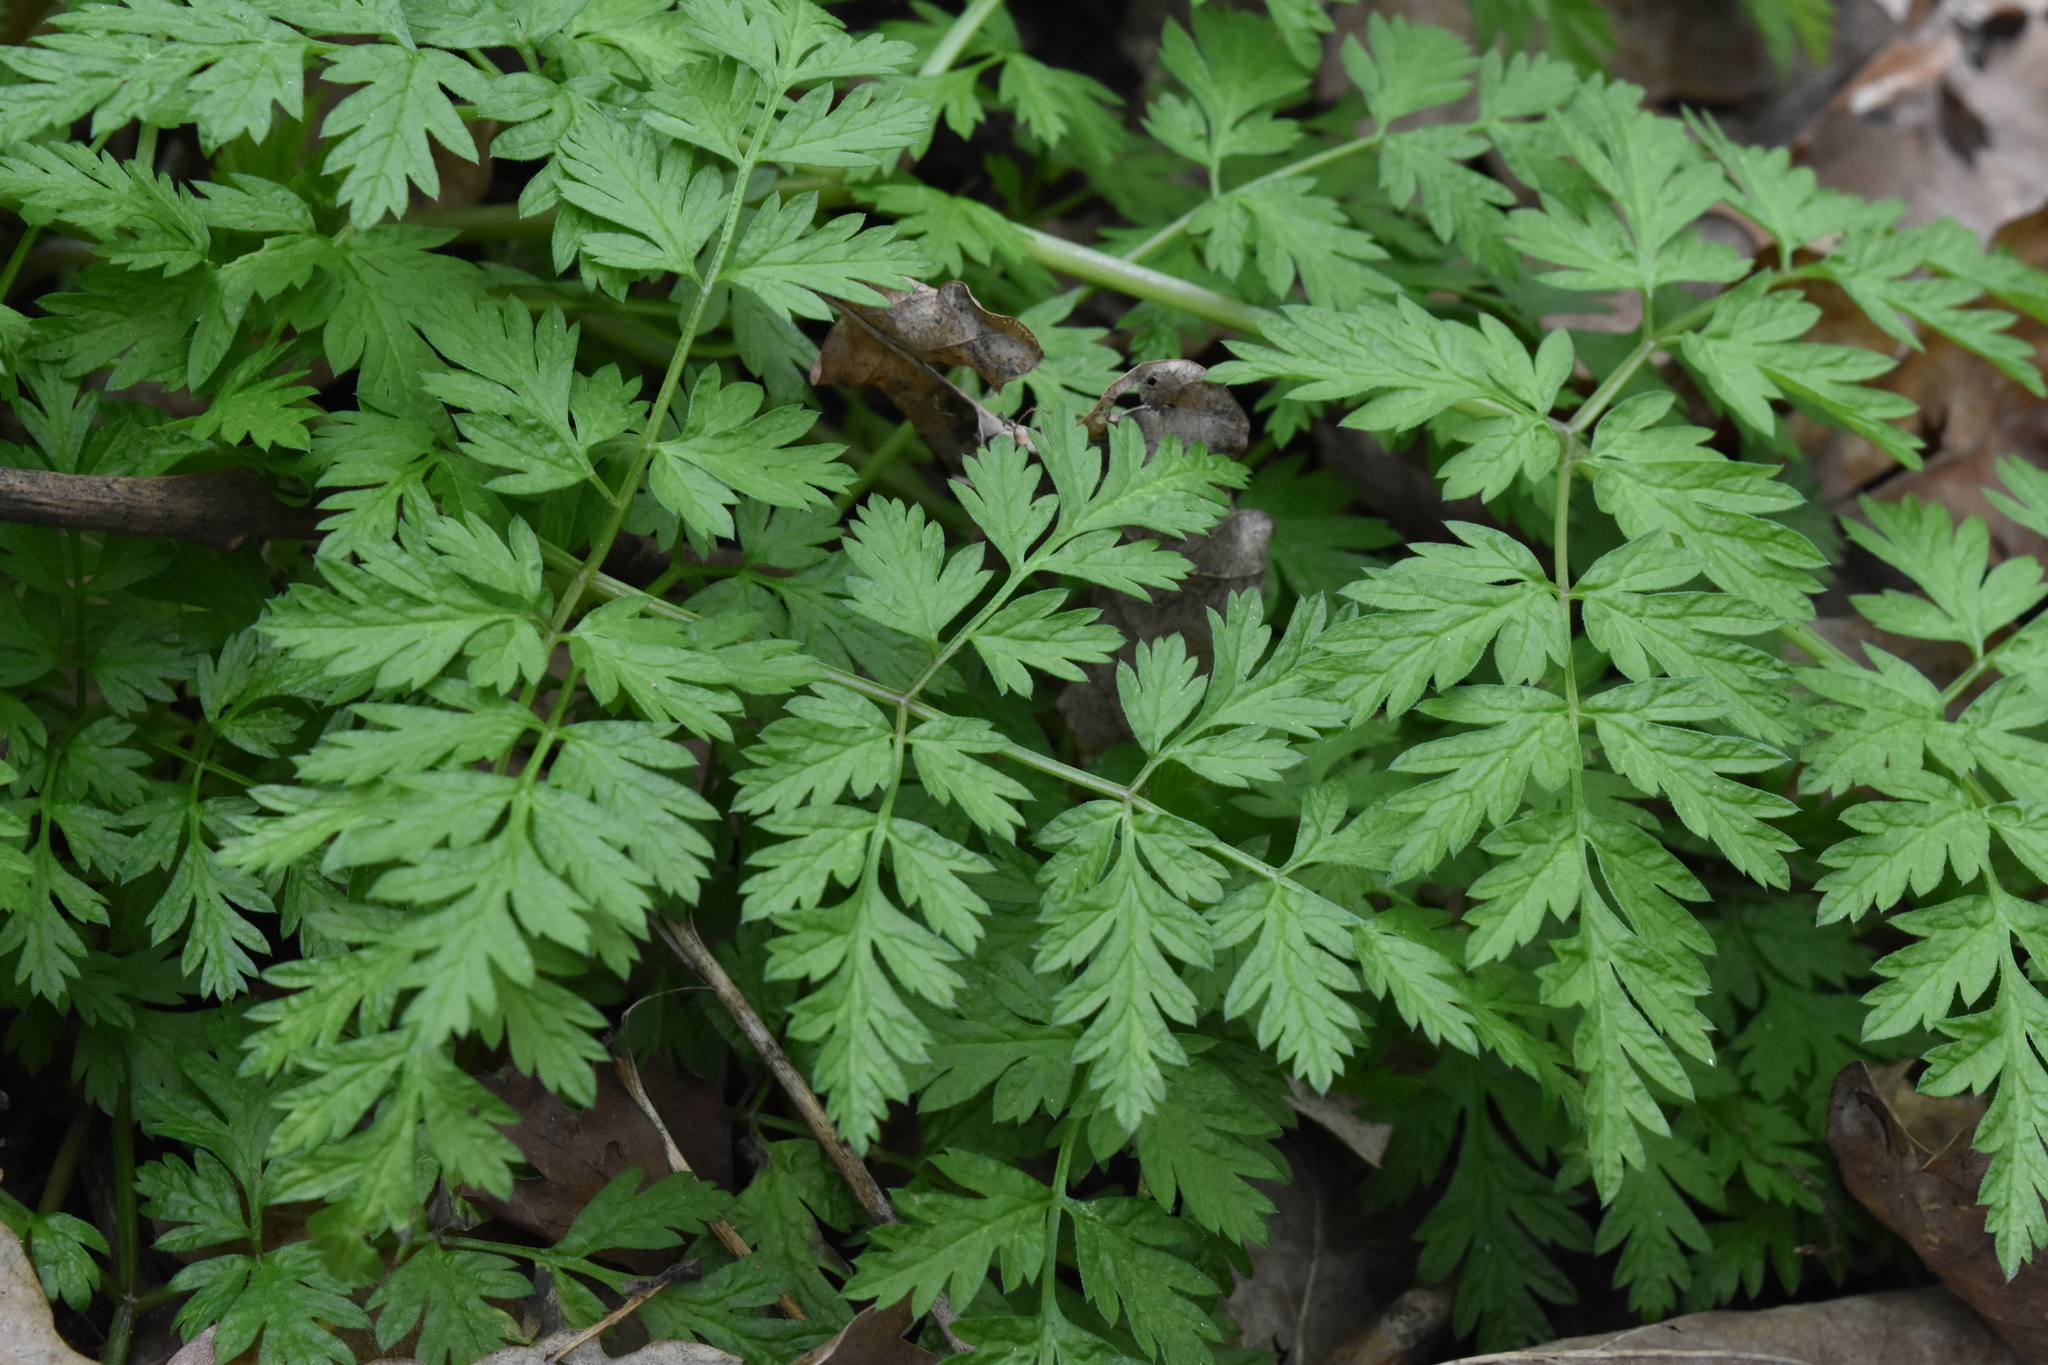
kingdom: Plantae
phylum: Tracheophyta
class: Magnoliopsida
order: Apiales
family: Apiaceae
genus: Anthriscus
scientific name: Anthriscus sylvestris
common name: Cow parsley
